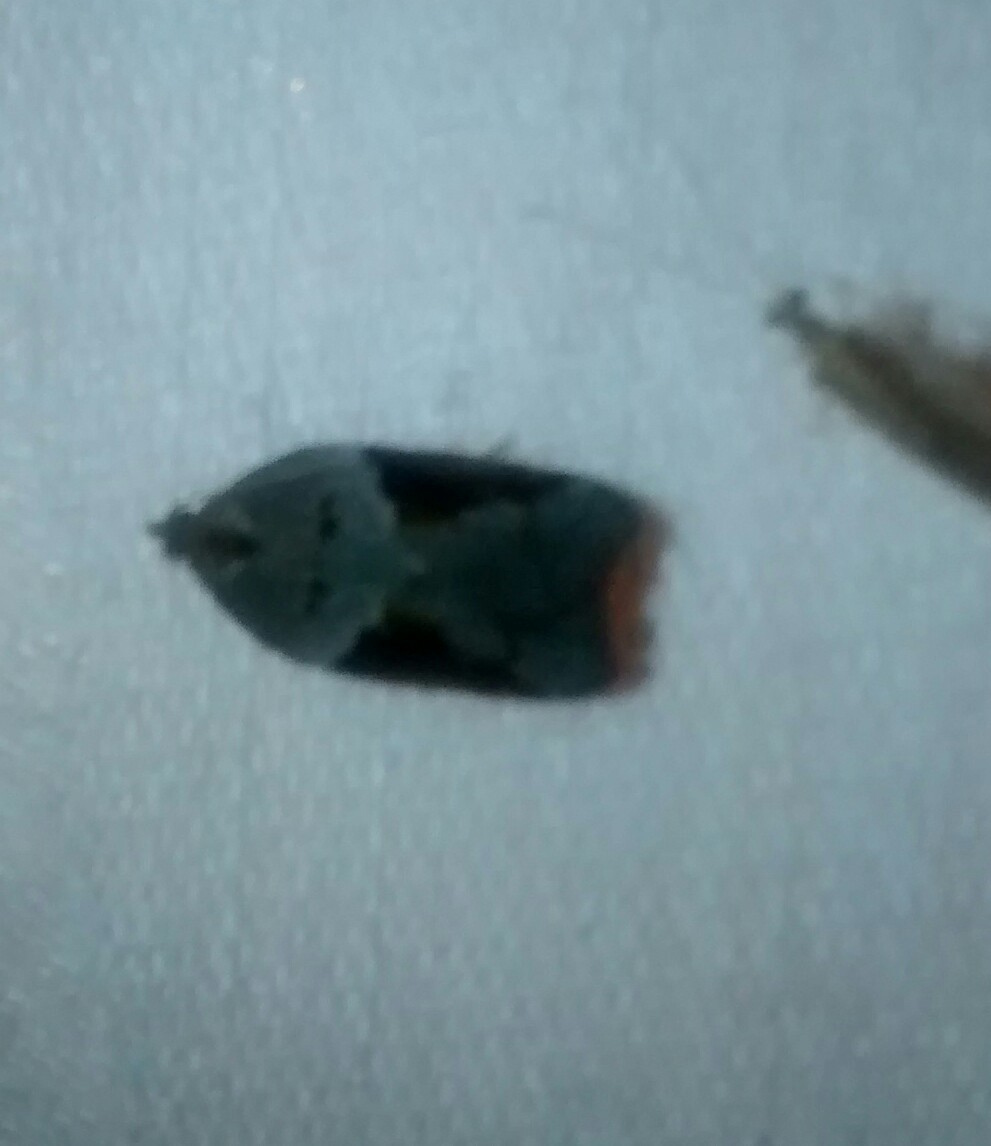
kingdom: Animalia
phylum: Arthropoda
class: Insecta
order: Lepidoptera
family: Tortricidae
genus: Acleris
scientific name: Acleris macdunnoughi
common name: Macdunnough's acleris
